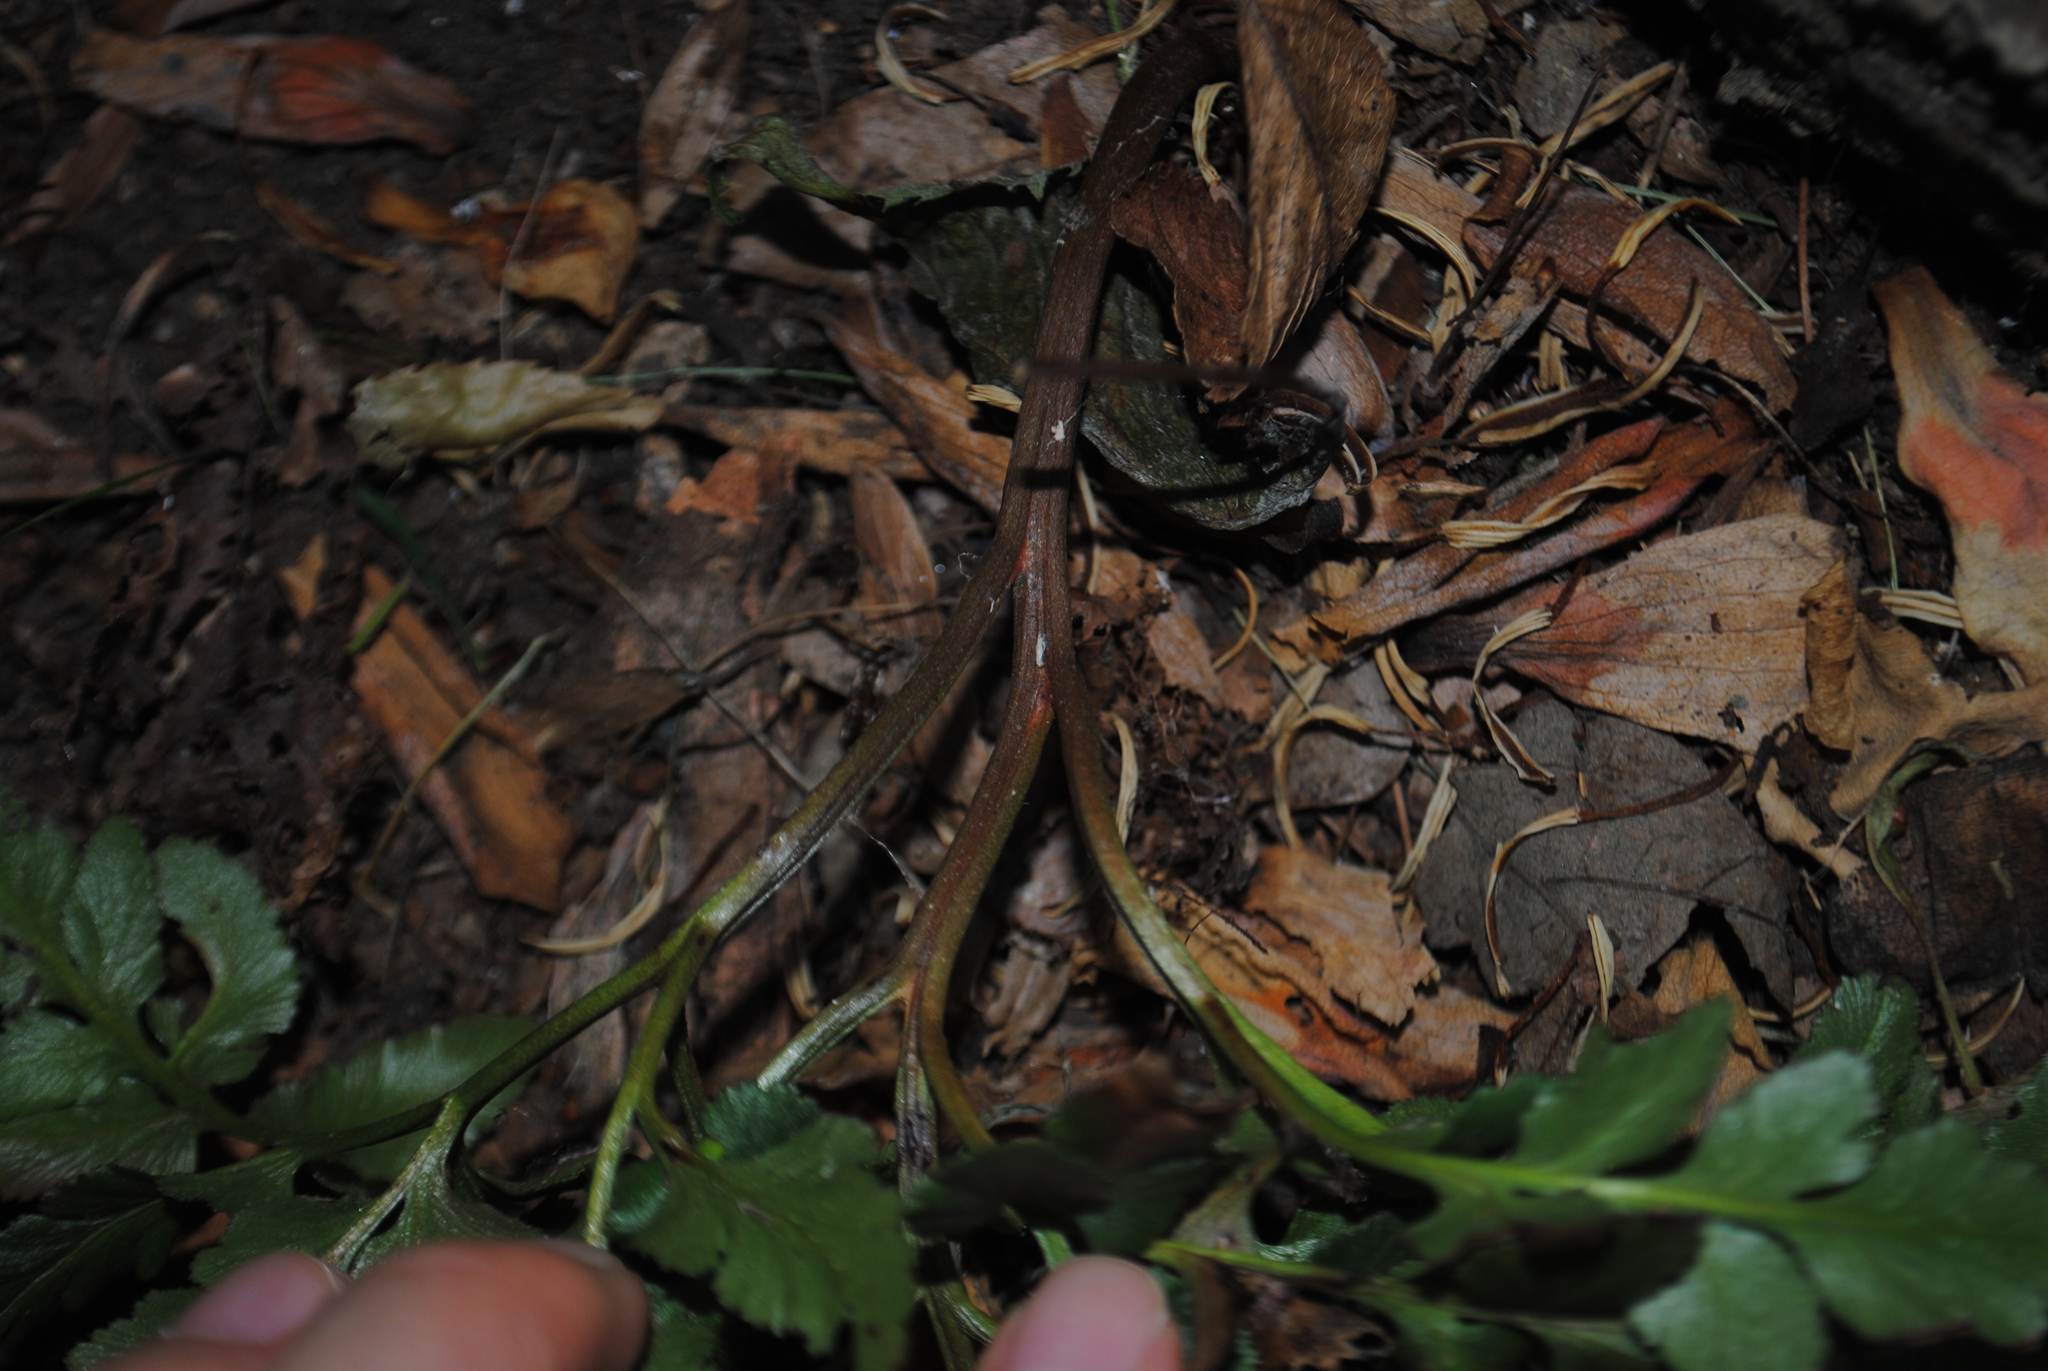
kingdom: Plantae
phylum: Tracheophyta
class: Polypodiopsida
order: Ophioglossales
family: Ophioglossaceae
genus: Sceptridium
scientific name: Sceptridium multifidum
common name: Leathery grape fern
